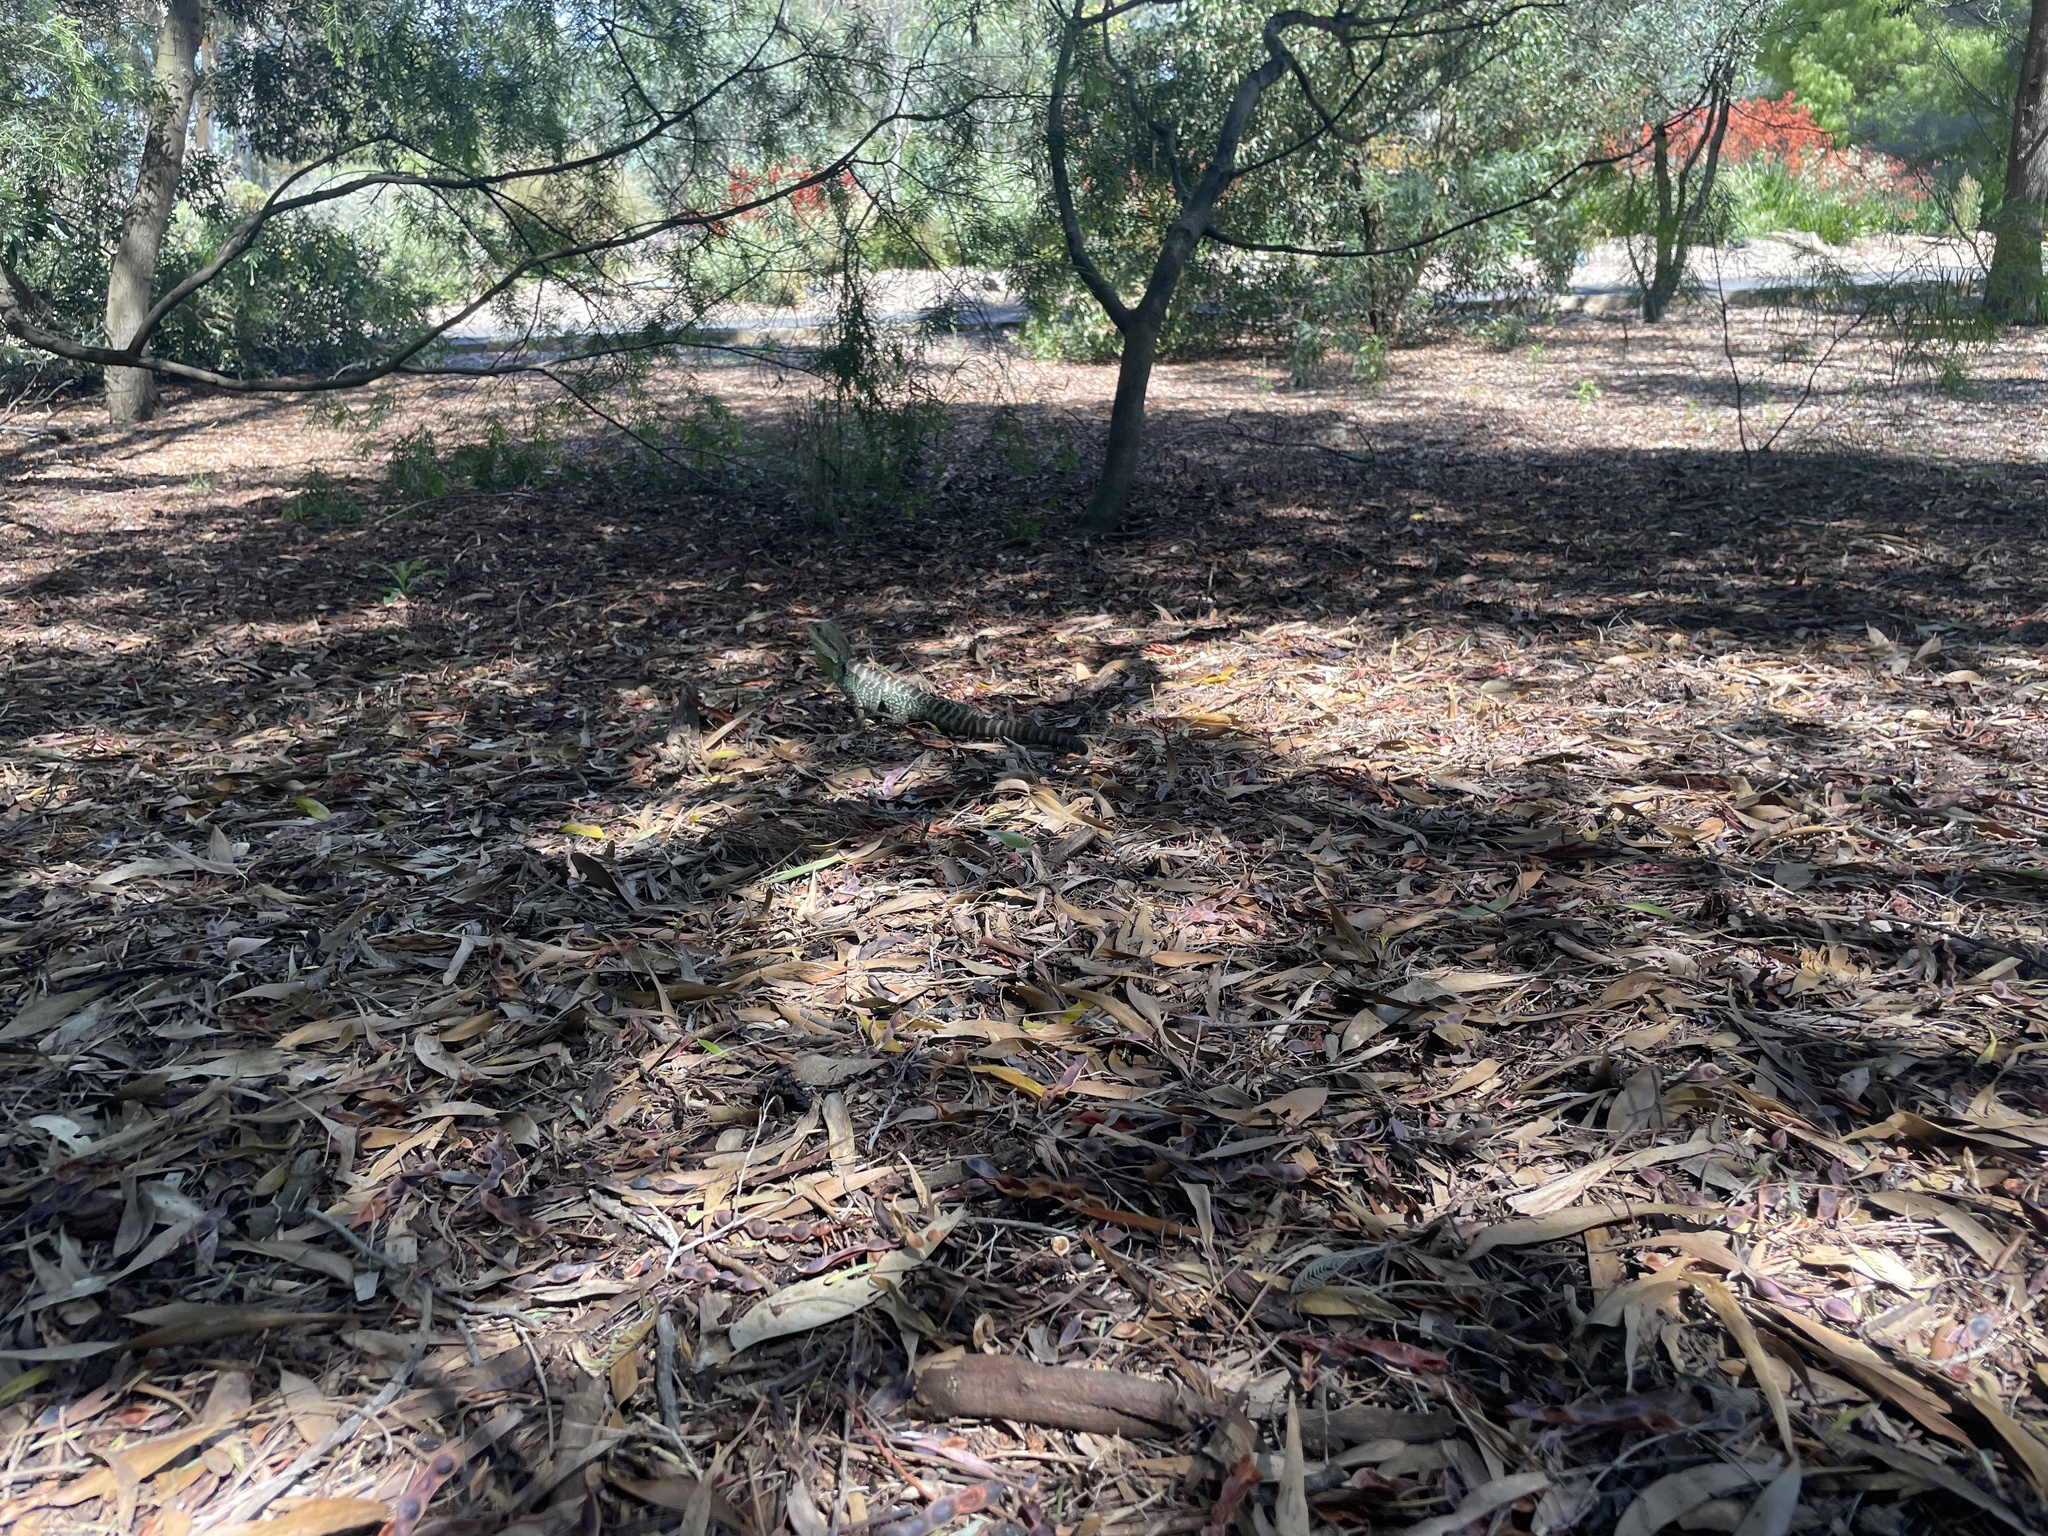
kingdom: Animalia
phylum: Chordata
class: Squamata
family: Agamidae
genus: Intellagama
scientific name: Intellagama lesueurii
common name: Eastern water dragon
